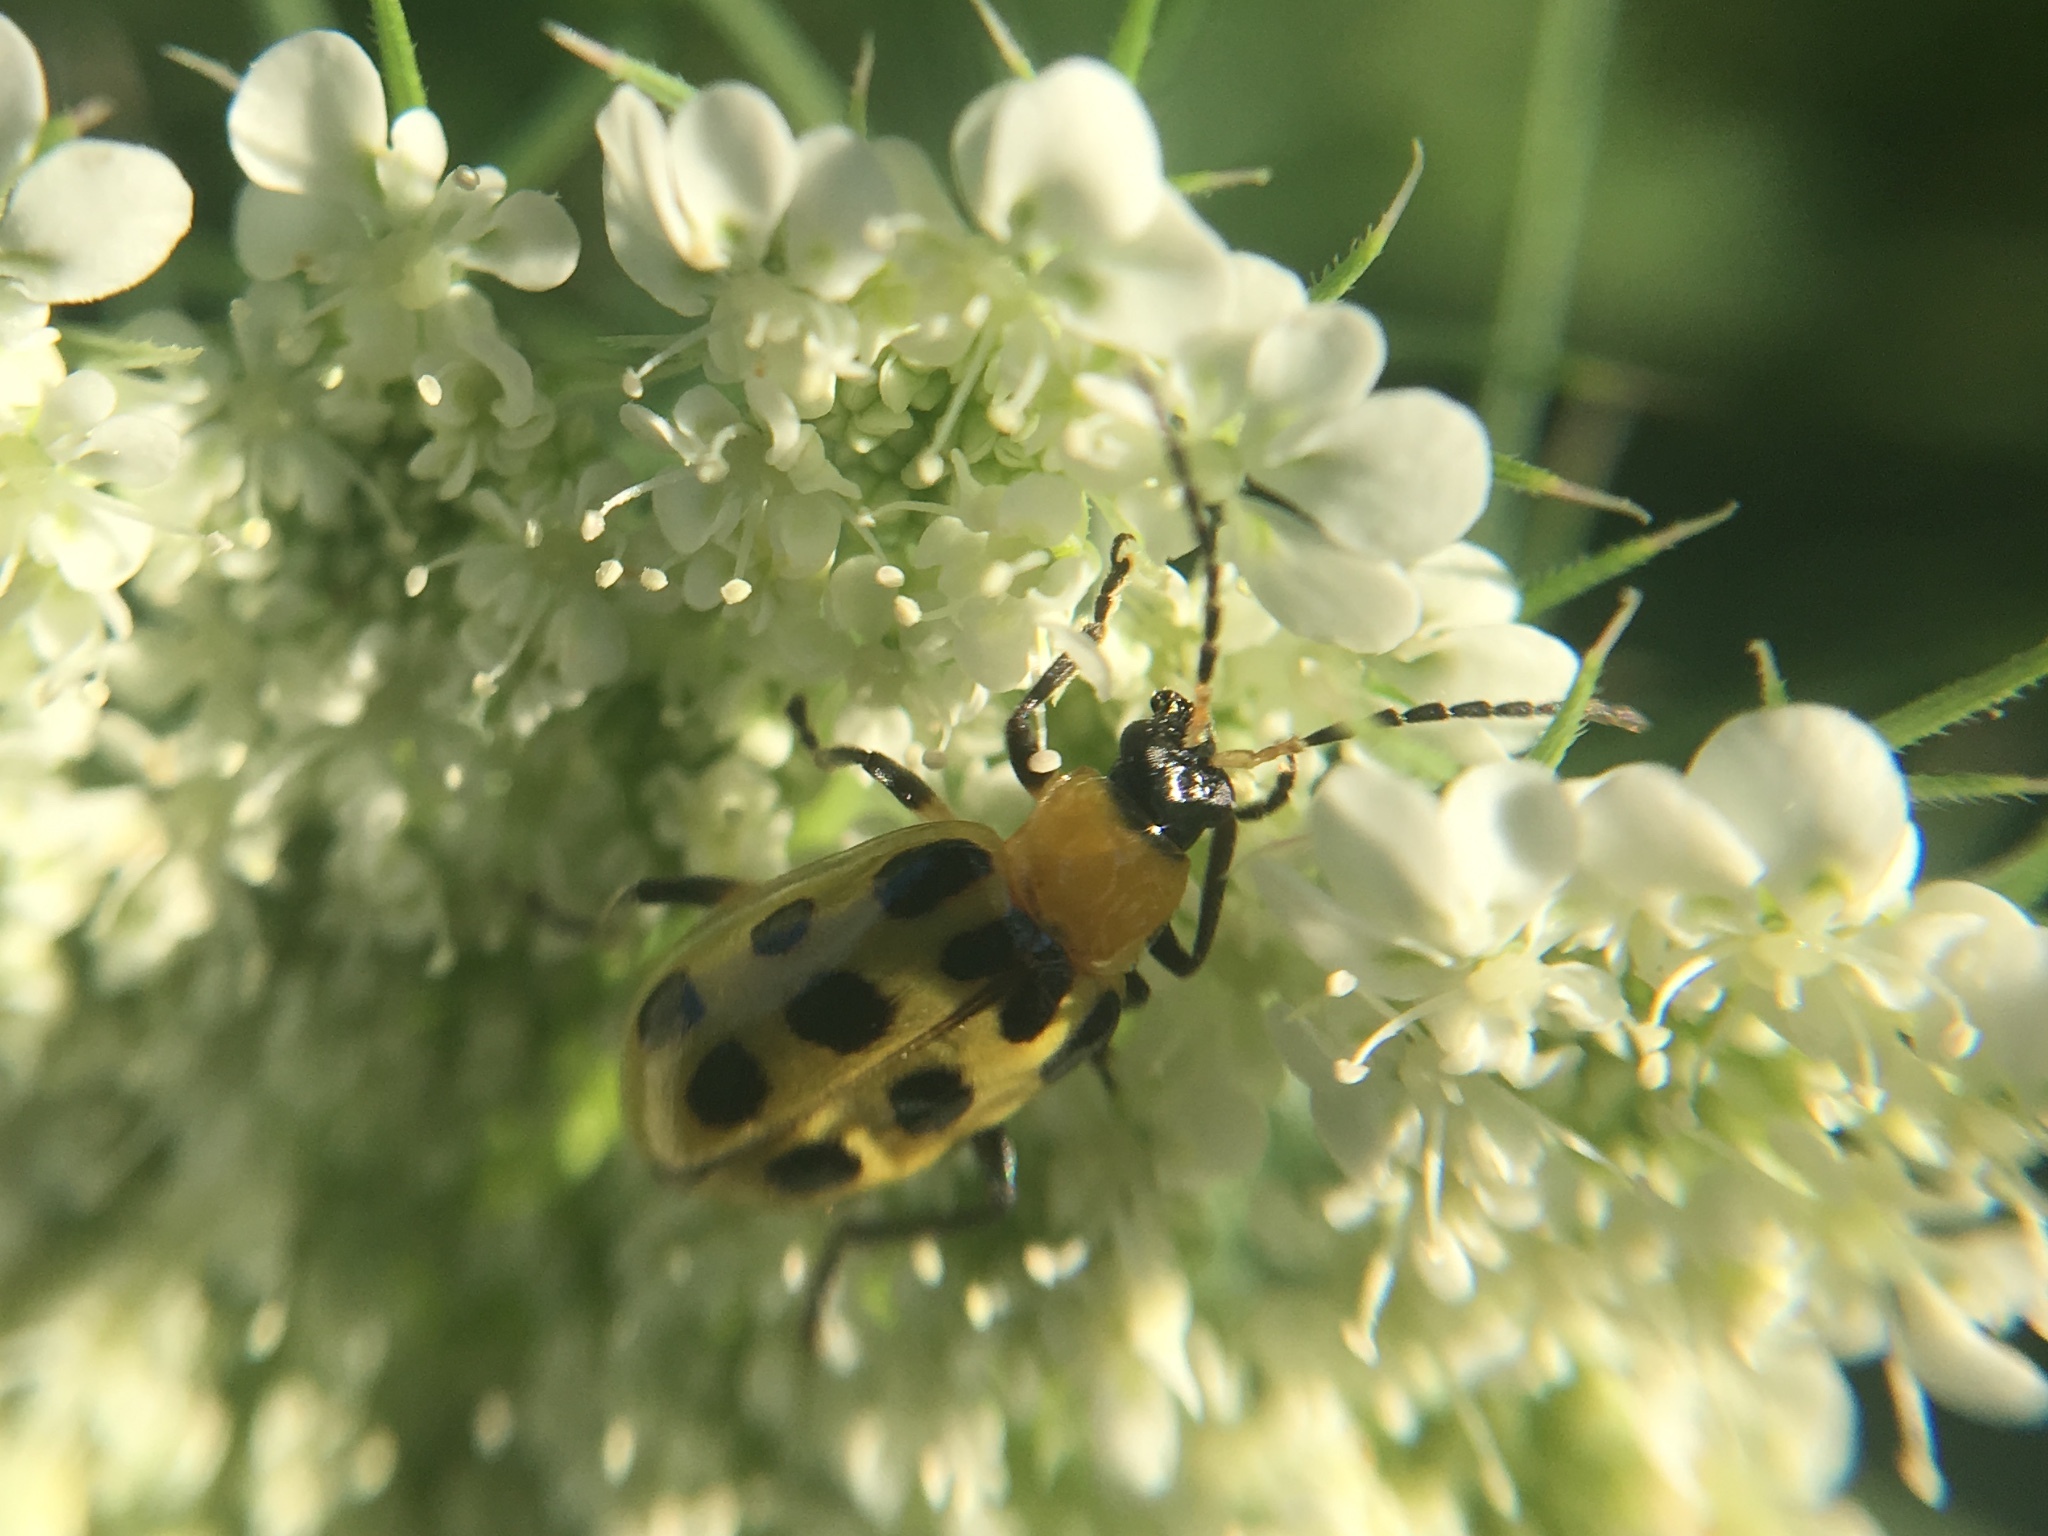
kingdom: Animalia
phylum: Arthropoda
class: Insecta
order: Coleoptera
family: Chrysomelidae
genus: Diabrotica
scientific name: Diabrotica undecimpunctata
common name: Spotted cucumber beetle
